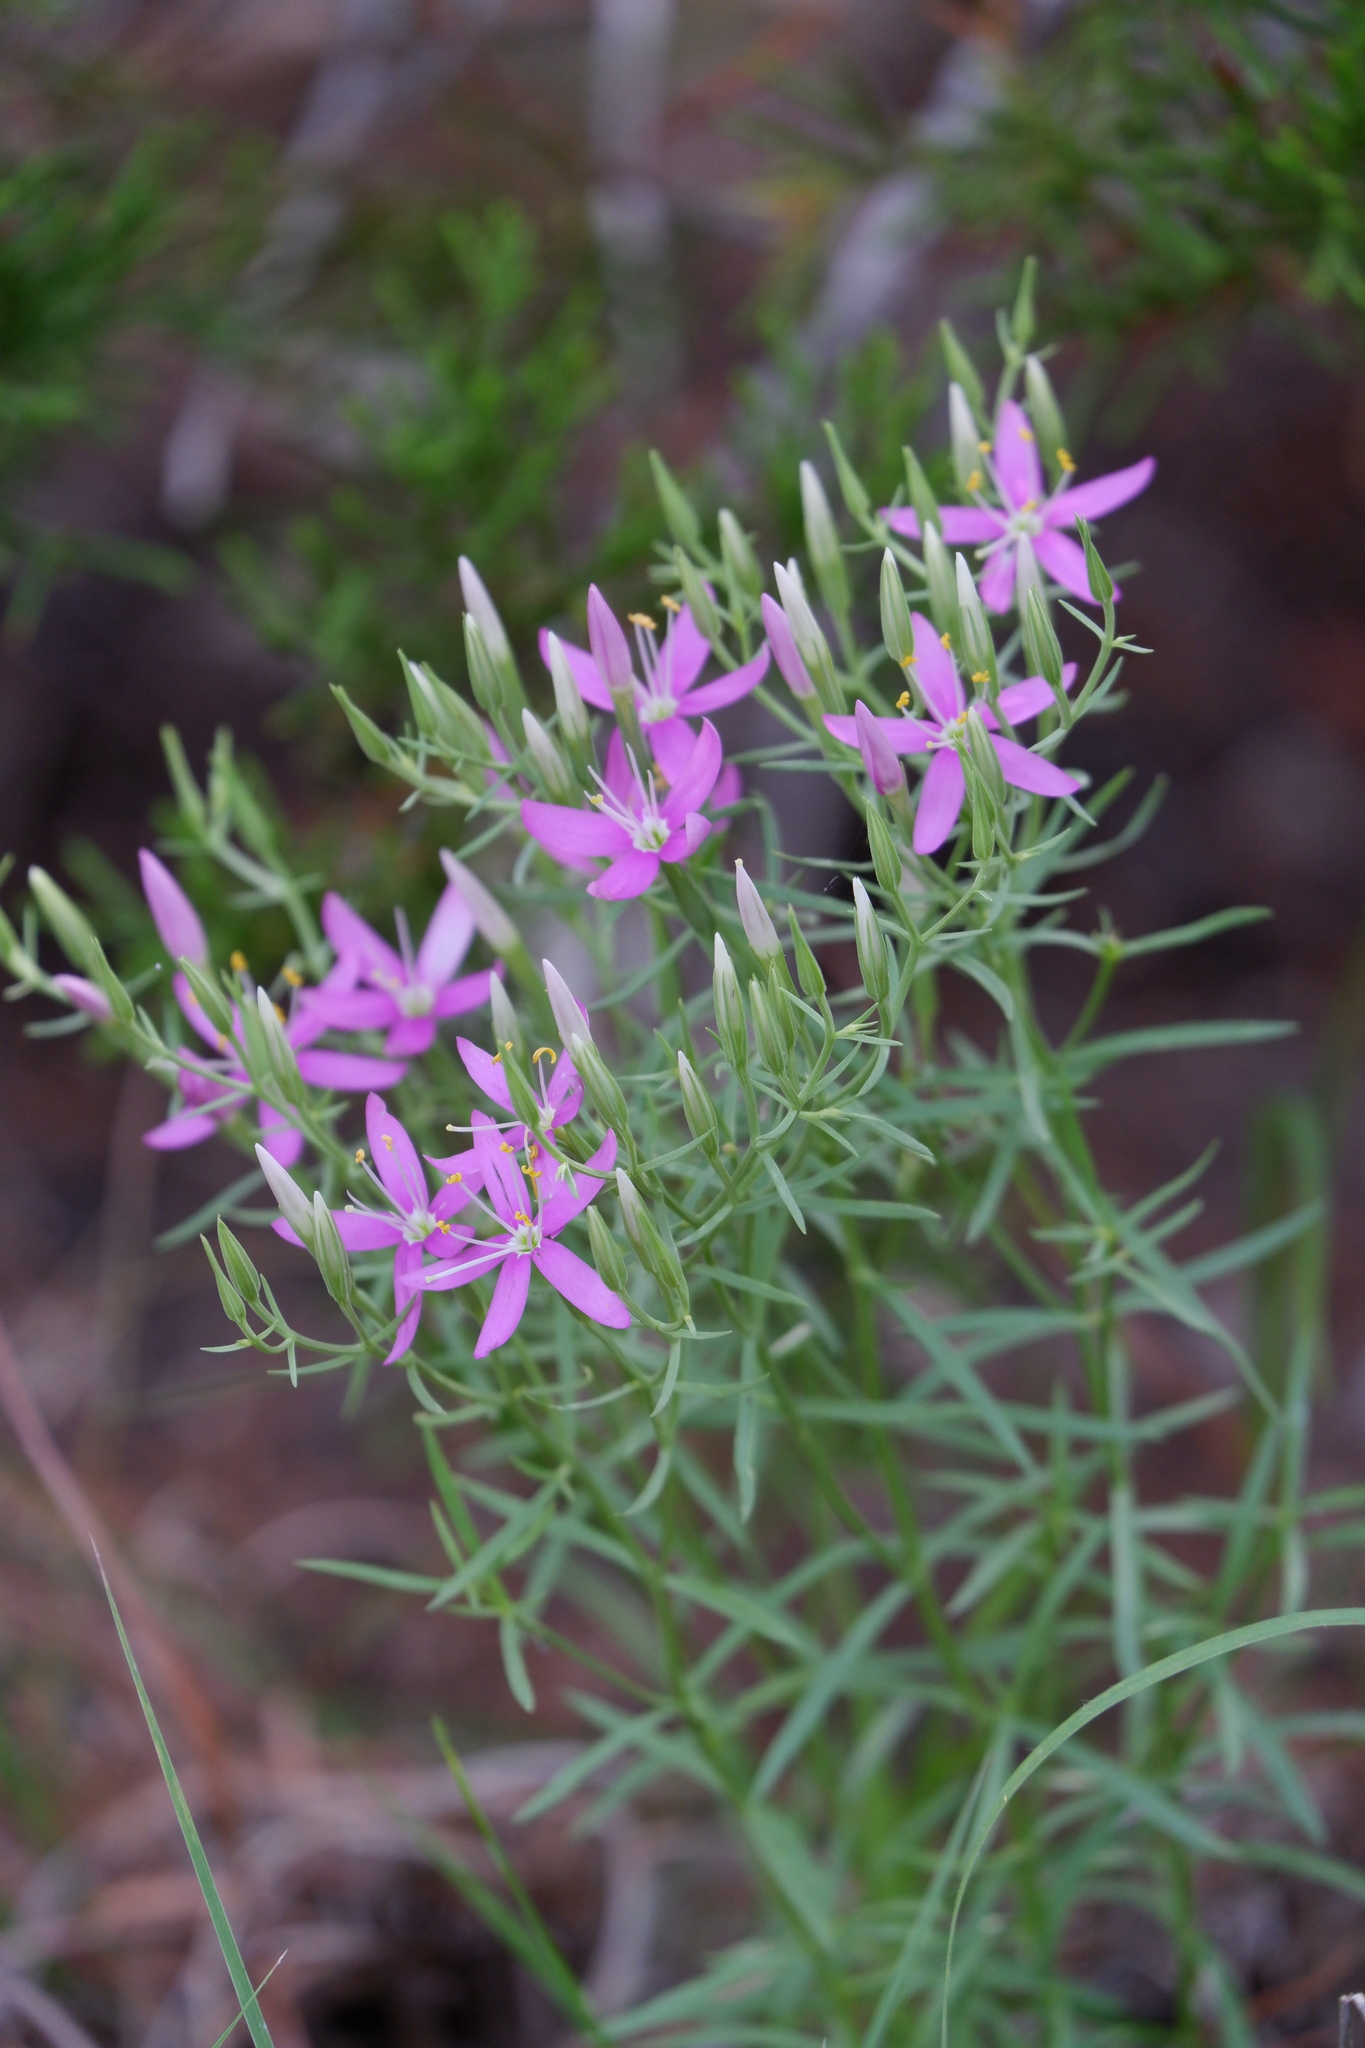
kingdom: Plantae
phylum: Tracheophyta
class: Magnoliopsida
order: Gentianales
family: Gentianaceae
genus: Zeltnera
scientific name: Zeltnera beyrichii
